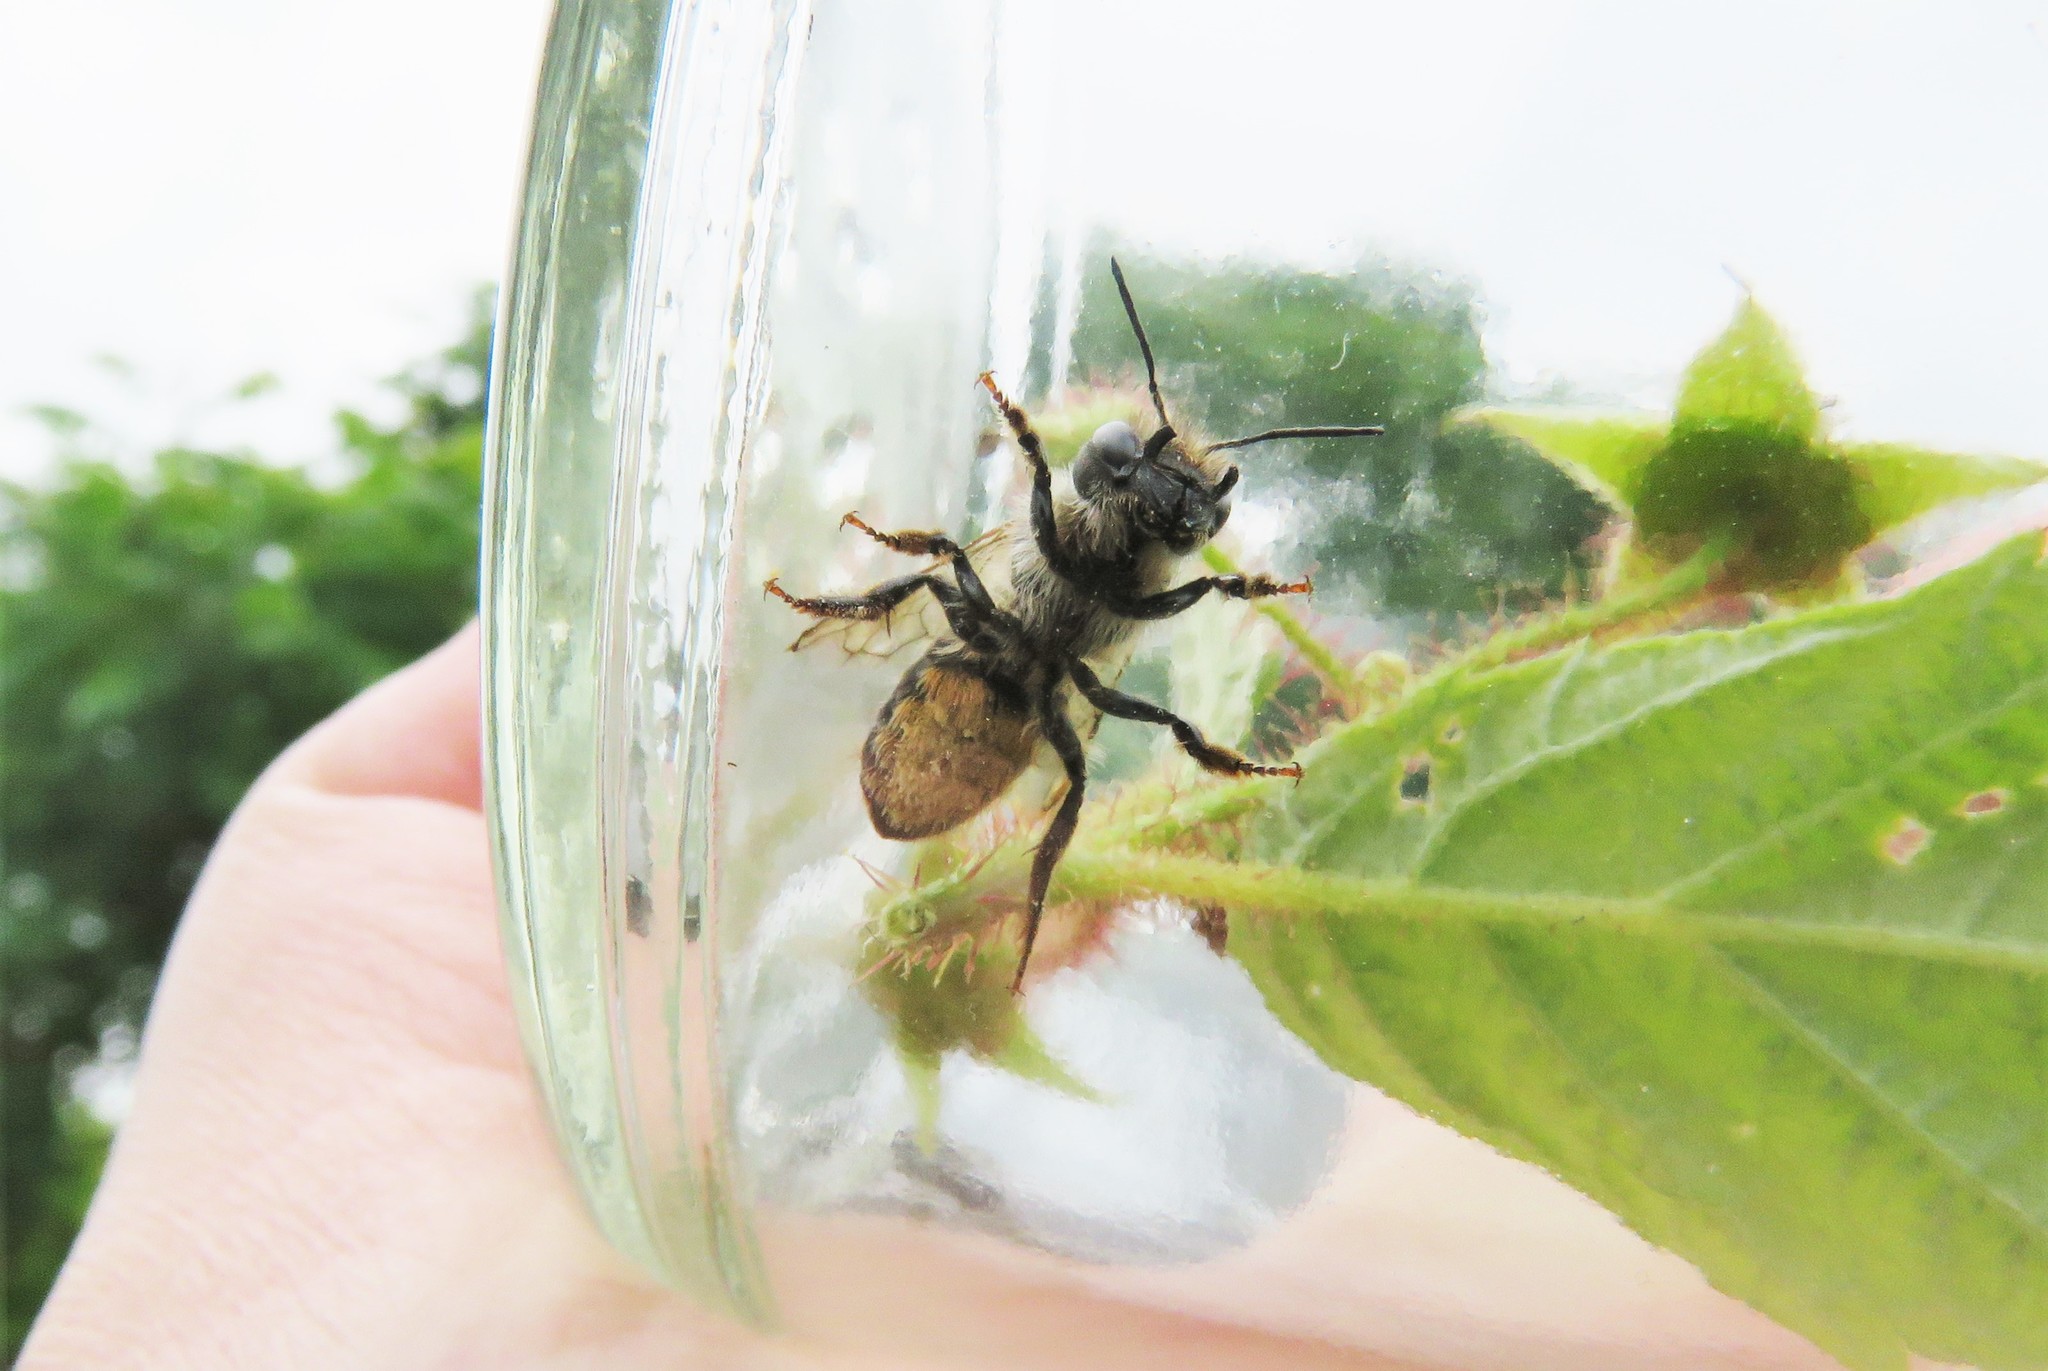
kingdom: Animalia
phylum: Arthropoda
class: Insecta
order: Hymenoptera
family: Megachilidae
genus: Osmia
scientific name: Osmia cornifrons
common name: Horn-faced bee
